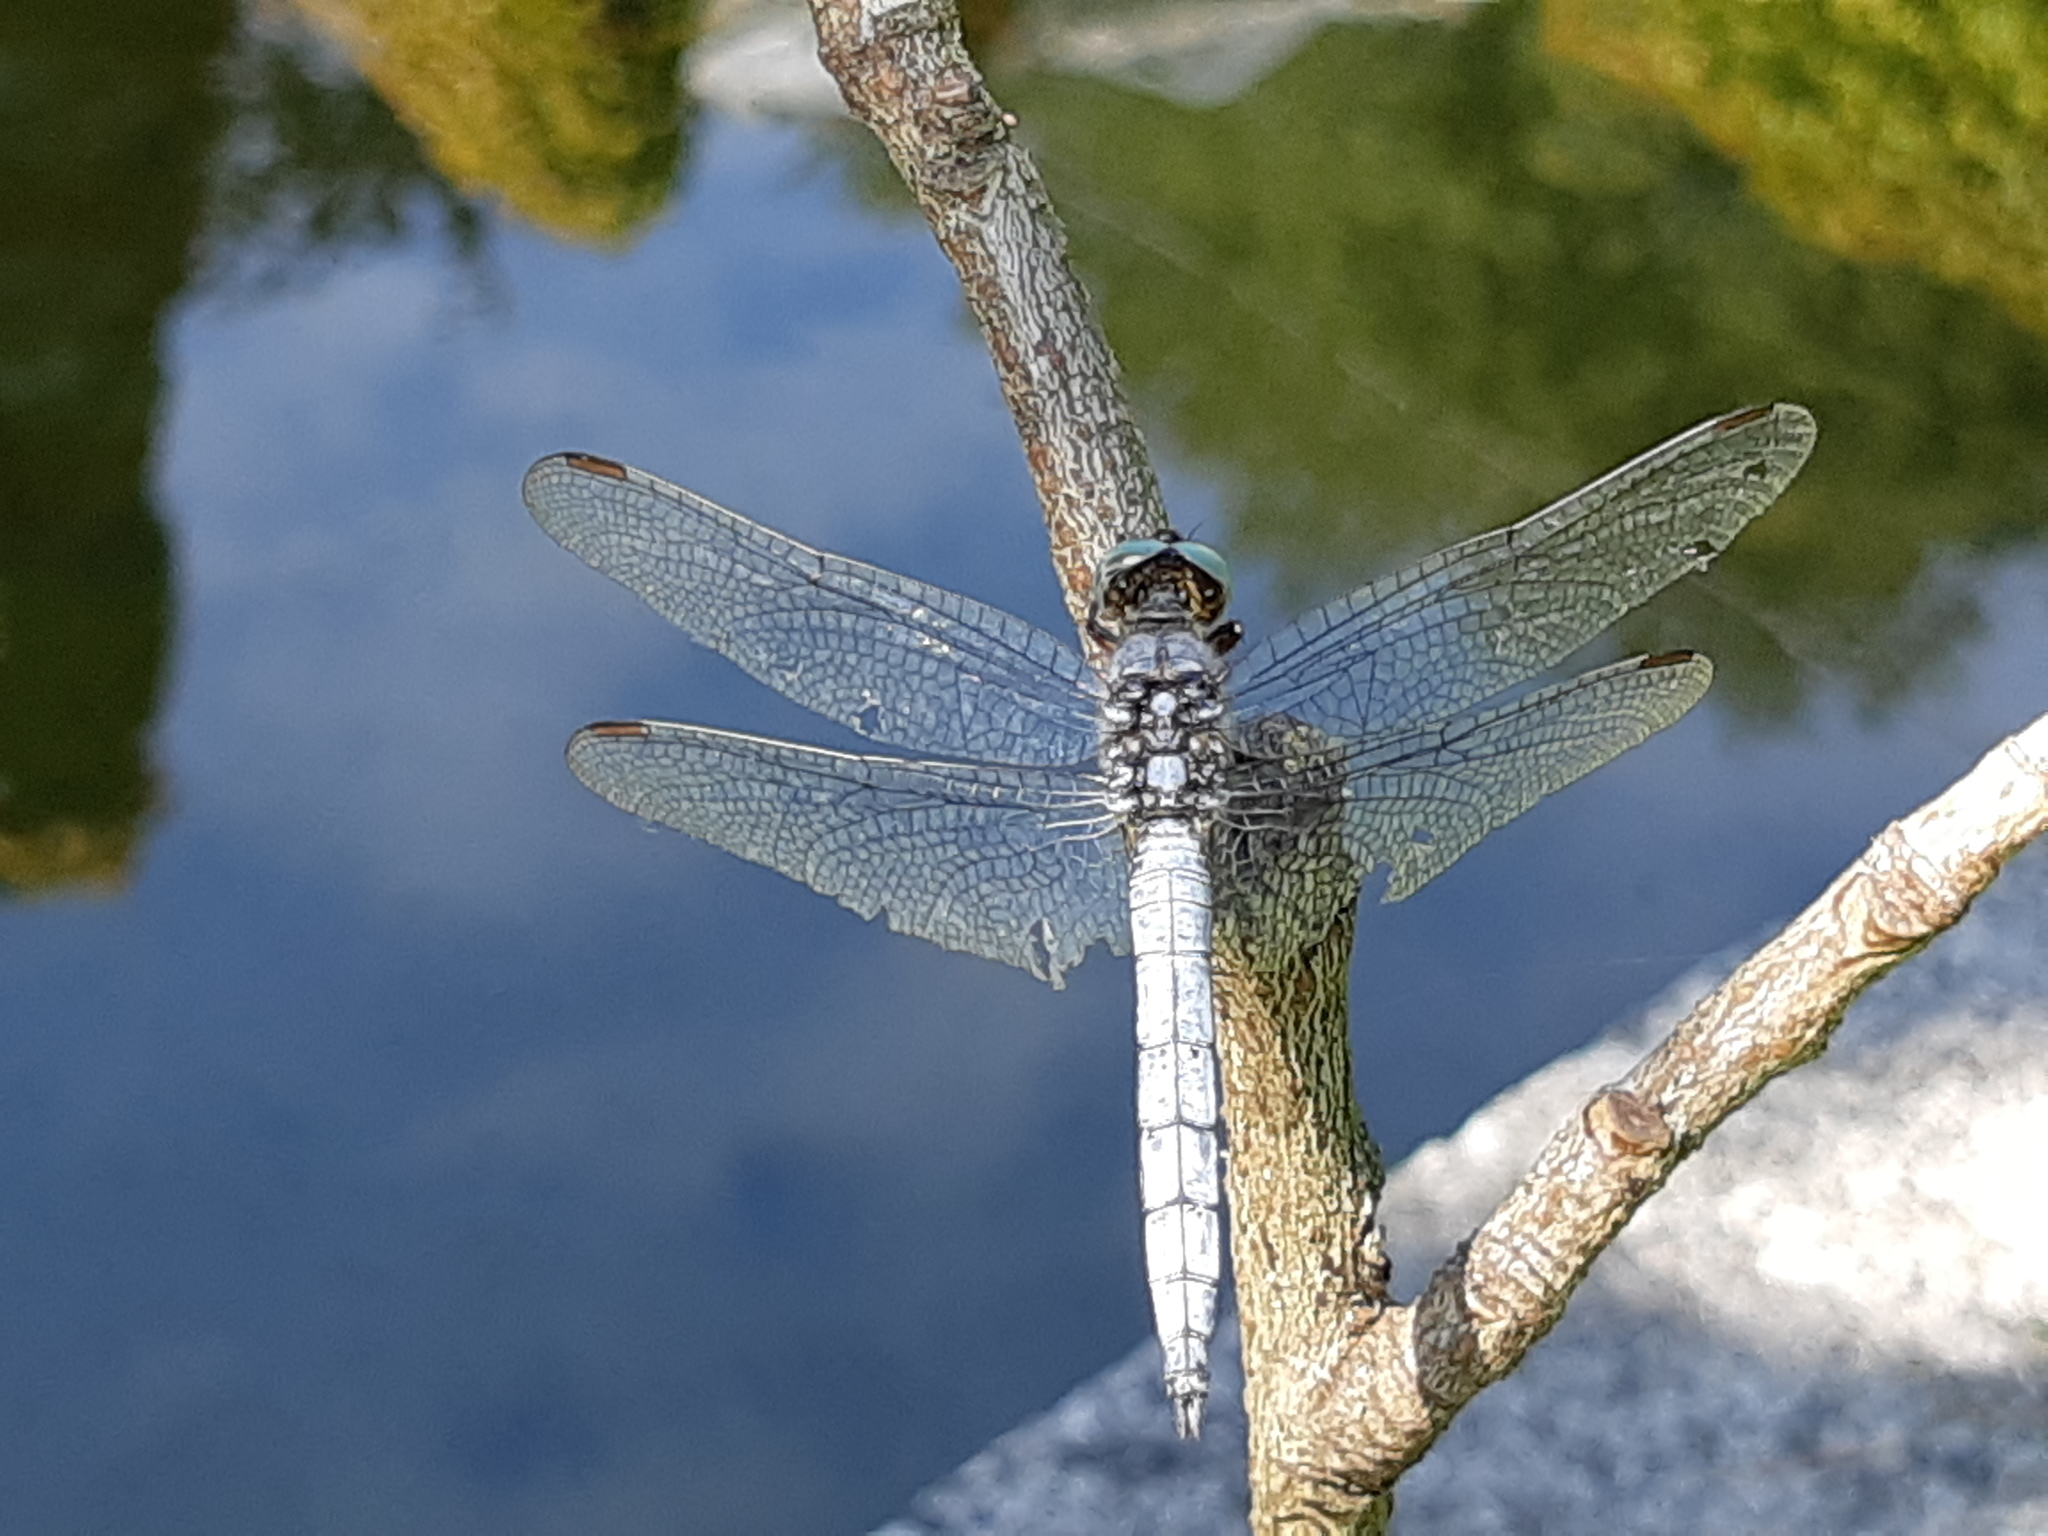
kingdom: Animalia
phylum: Arthropoda
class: Insecta
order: Odonata
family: Libellulidae
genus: Orthetrum
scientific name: Orthetrum coerulescens
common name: Keeled skimmer
